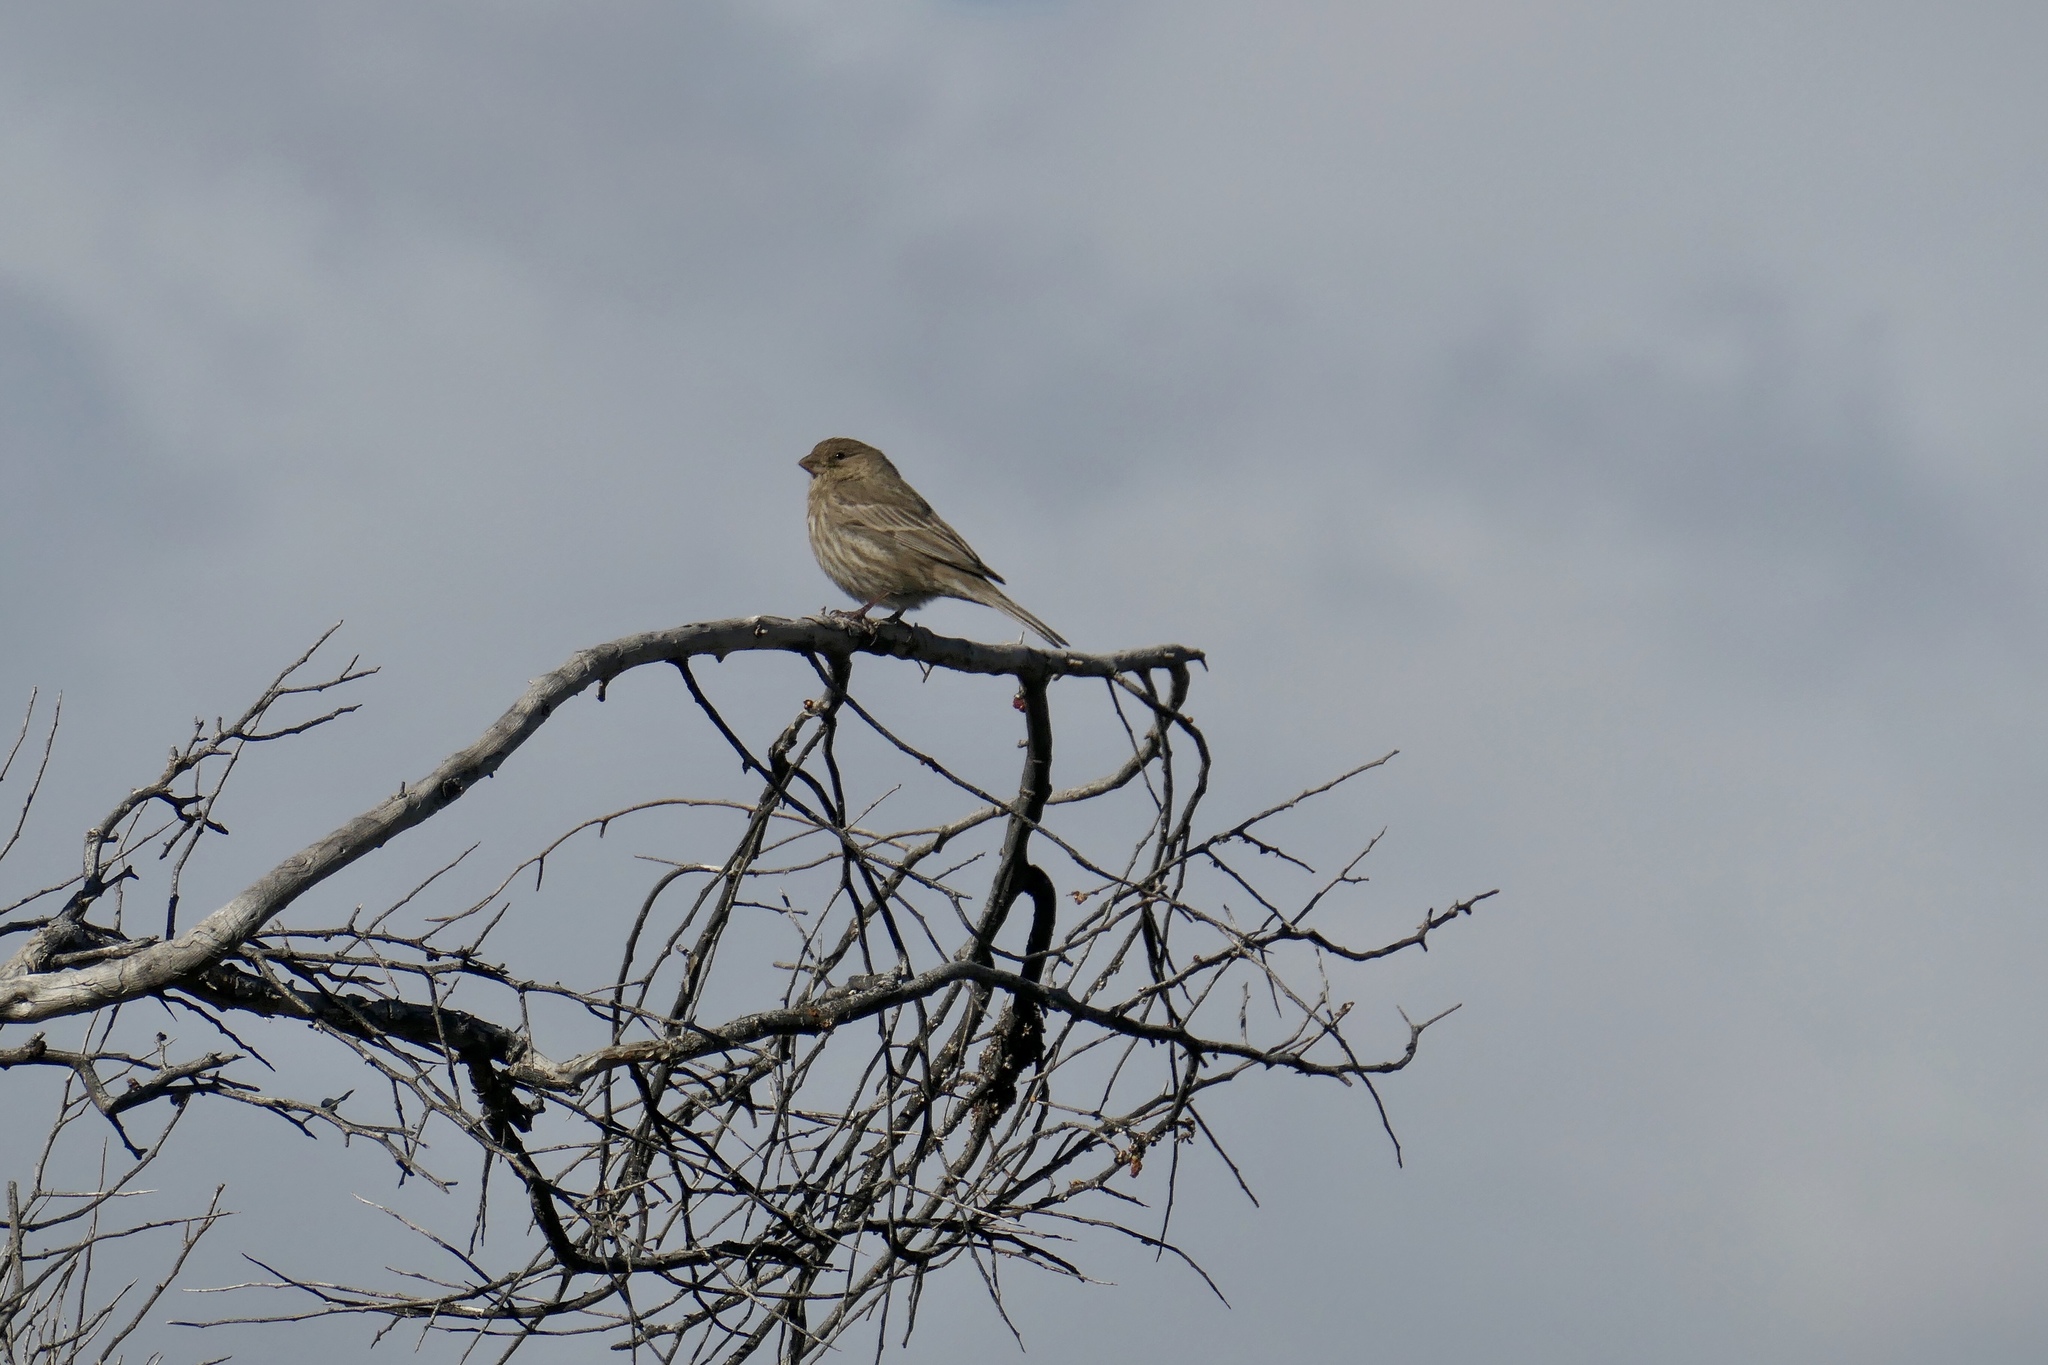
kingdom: Animalia
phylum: Chordata
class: Aves
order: Passeriformes
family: Fringillidae
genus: Haemorhous
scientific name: Haemorhous mexicanus
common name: House finch
